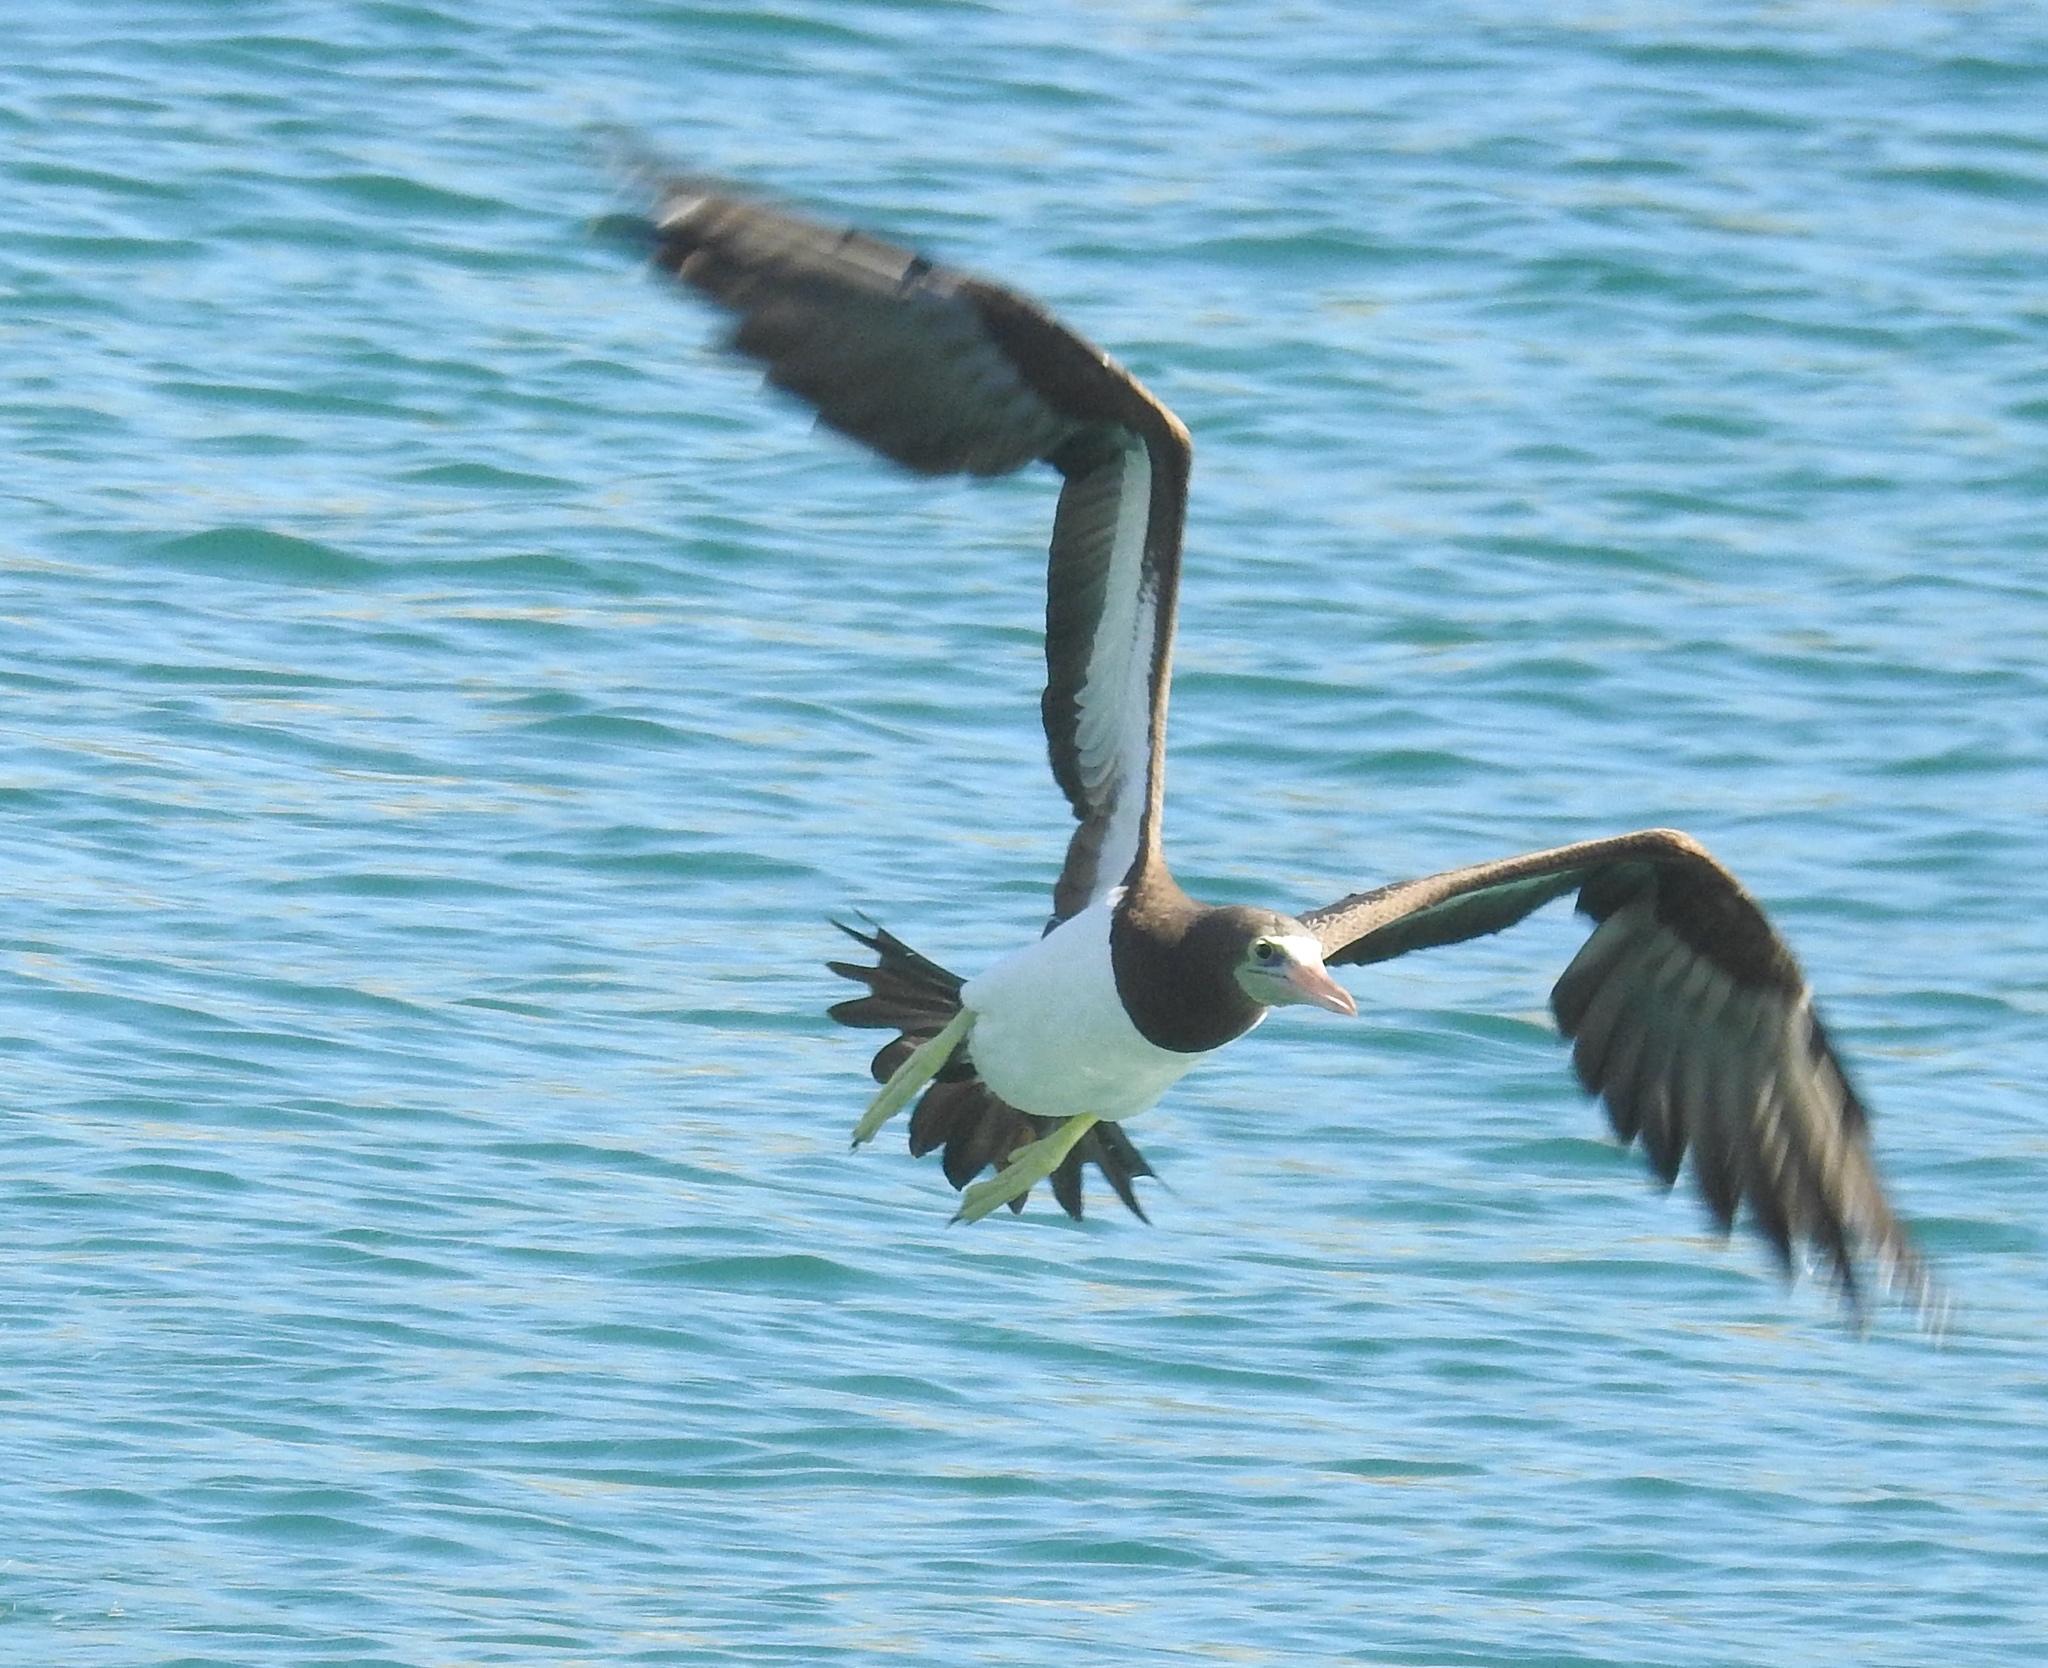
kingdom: Animalia
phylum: Chordata
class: Aves
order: Suliformes
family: Sulidae
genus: Sula
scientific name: Sula leucogaster
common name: Brown booby
